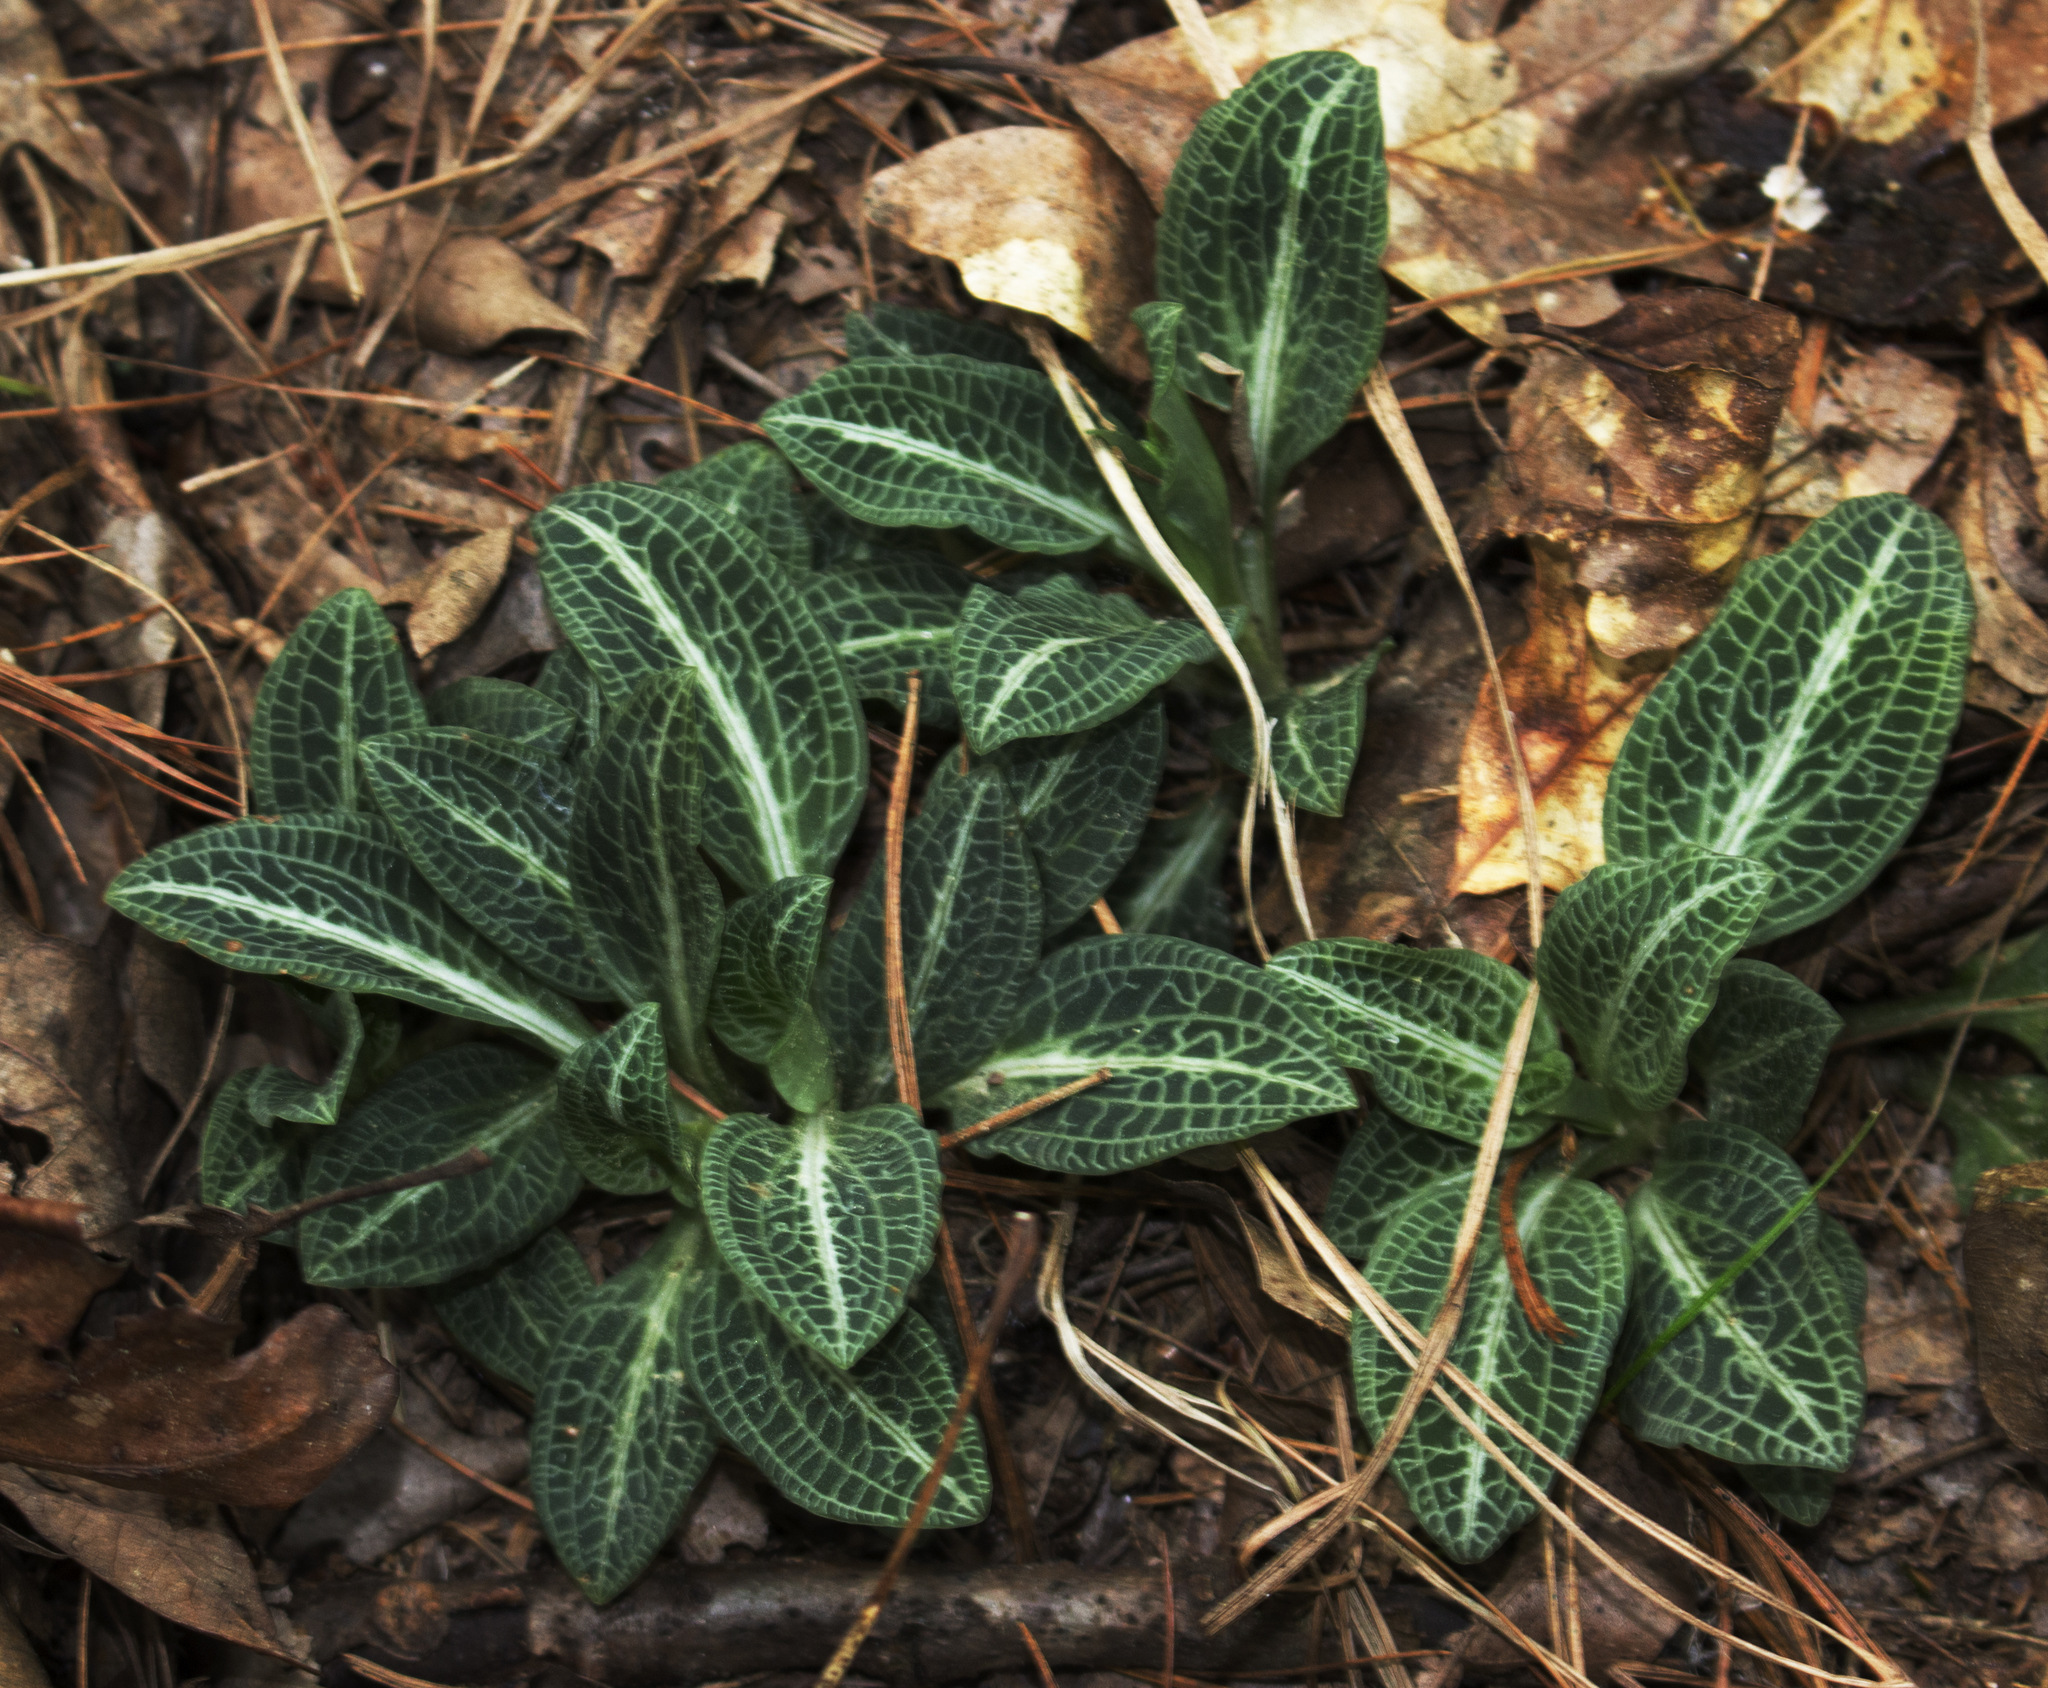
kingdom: Plantae
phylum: Tracheophyta
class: Liliopsida
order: Asparagales
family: Orchidaceae
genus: Goodyera
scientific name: Goodyera pubescens
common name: Downy rattlesnake-plantain
